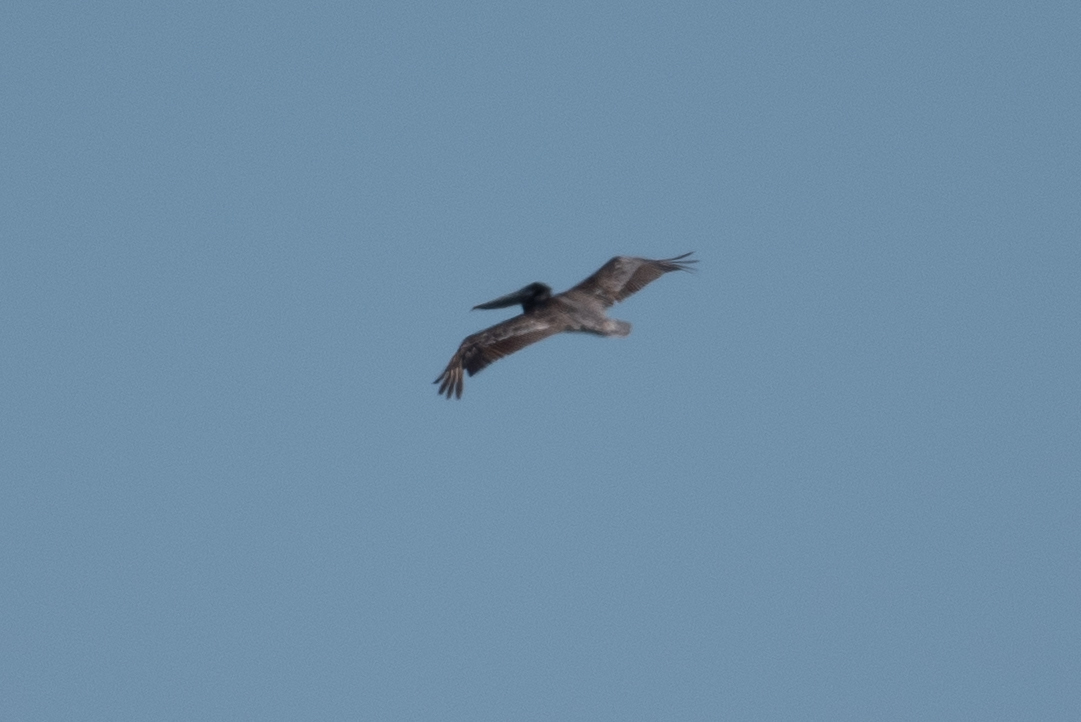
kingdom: Animalia
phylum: Chordata
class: Aves
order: Pelecaniformes
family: Pelecanidae
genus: Pelecanus
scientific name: Pelecanus occidentalis
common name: Brown pelican
